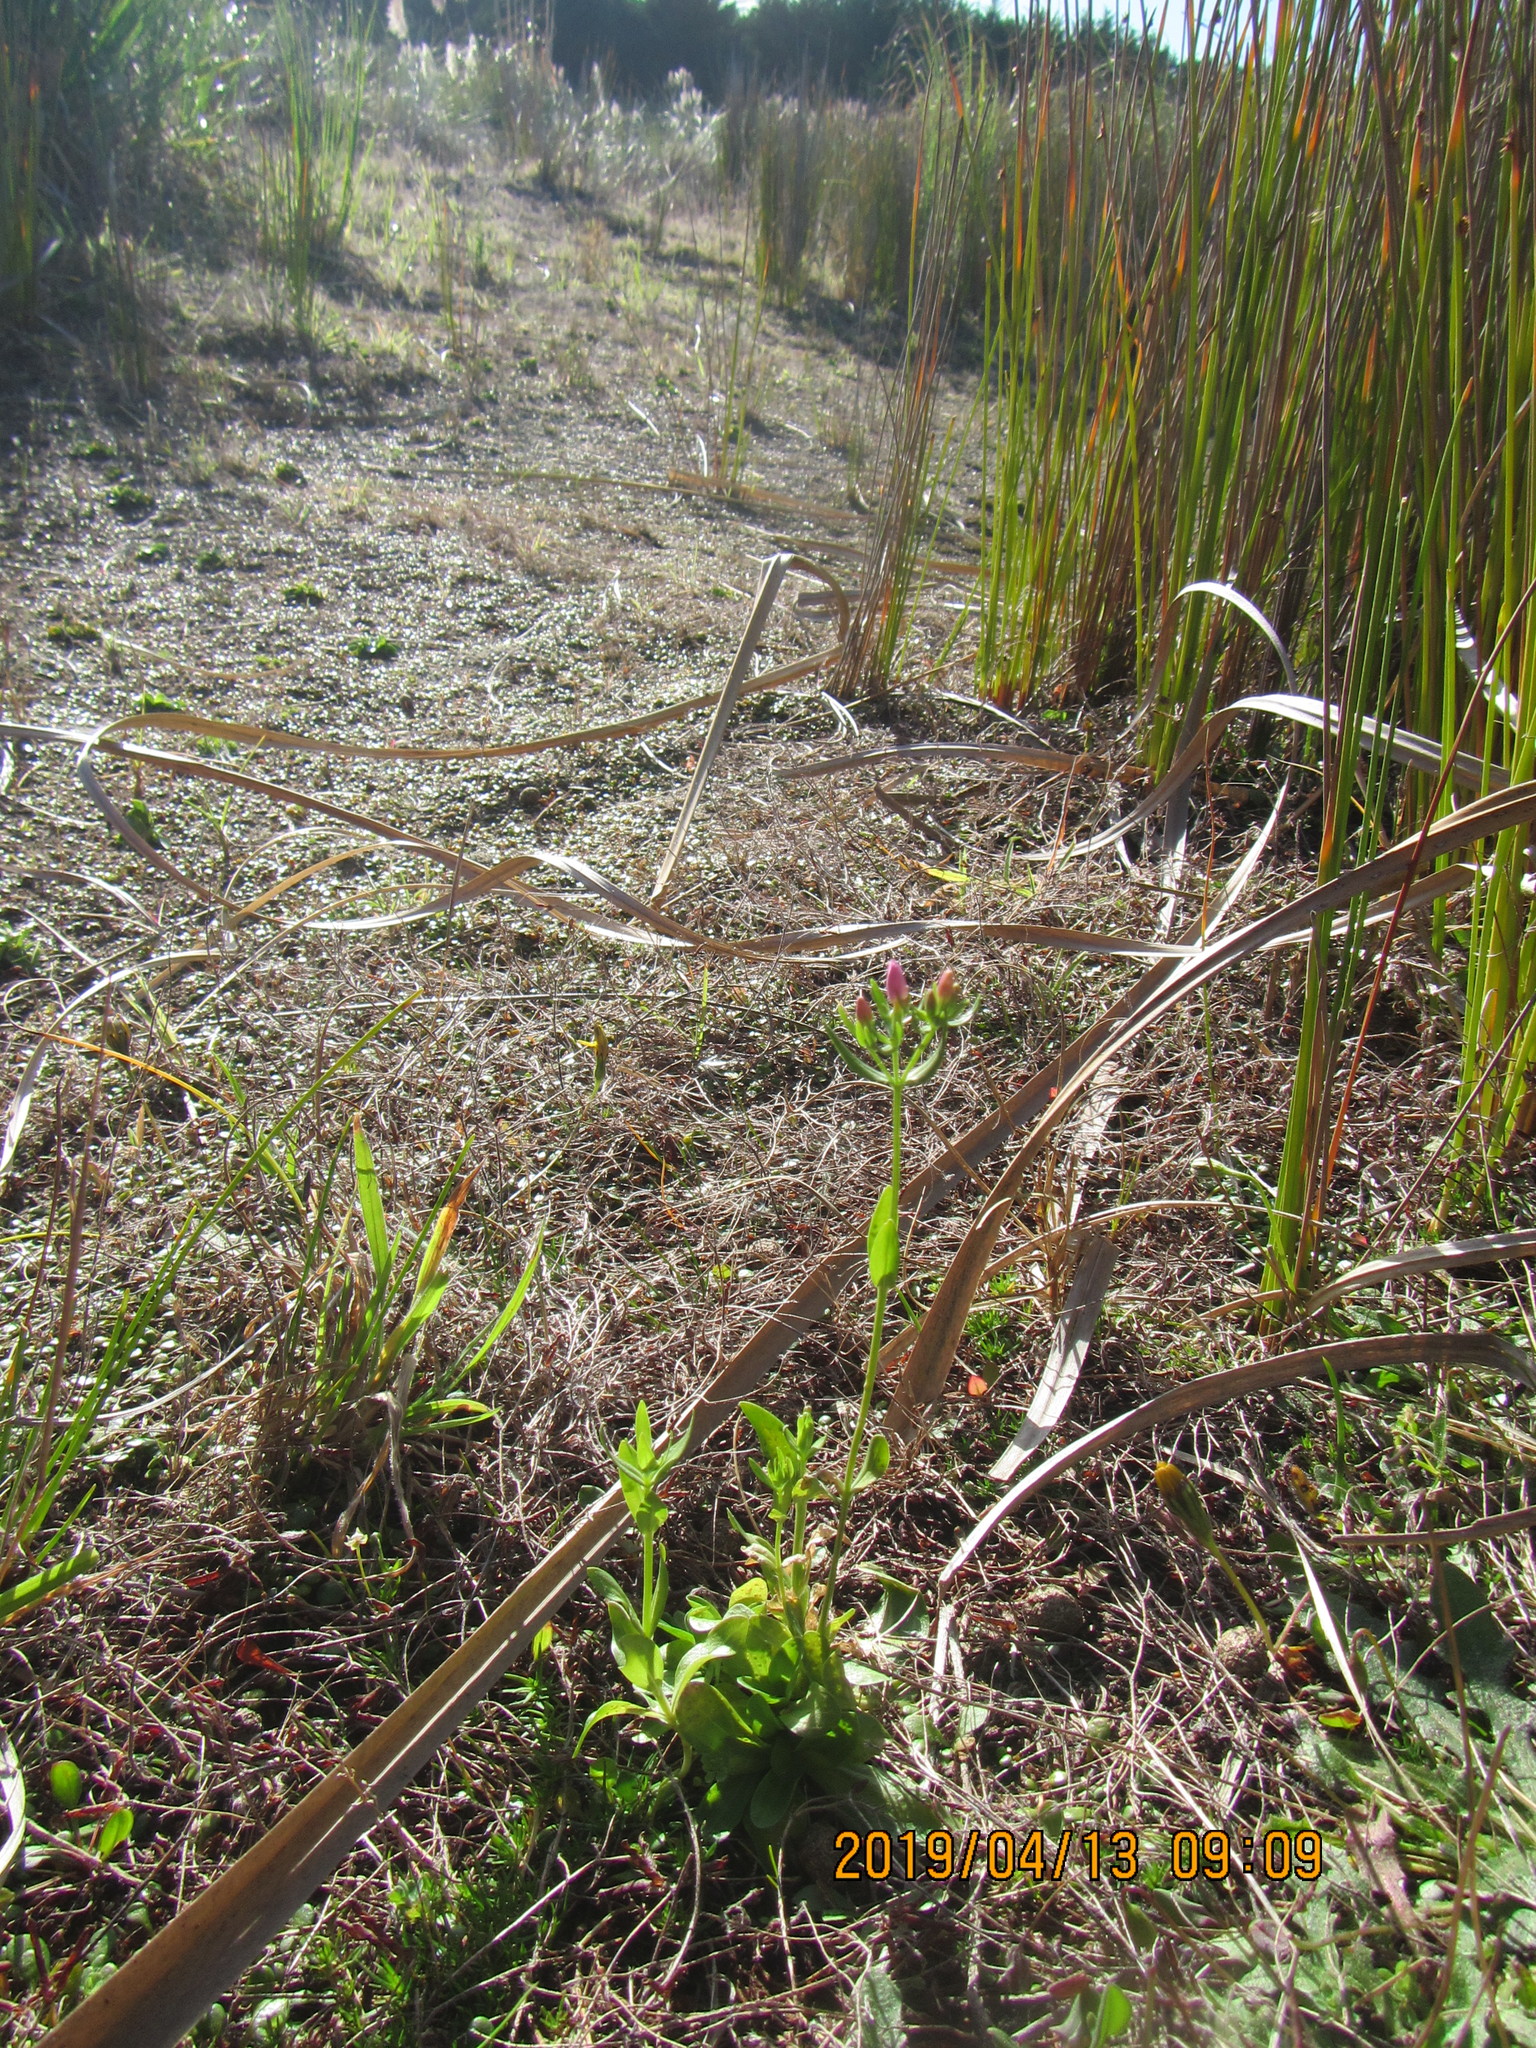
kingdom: Plantae
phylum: Tracheophyta
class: Magnoliopsida
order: Gentianales
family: Gentianaceae
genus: Centaurium
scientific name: Centaurium erythraea
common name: Common centaury
